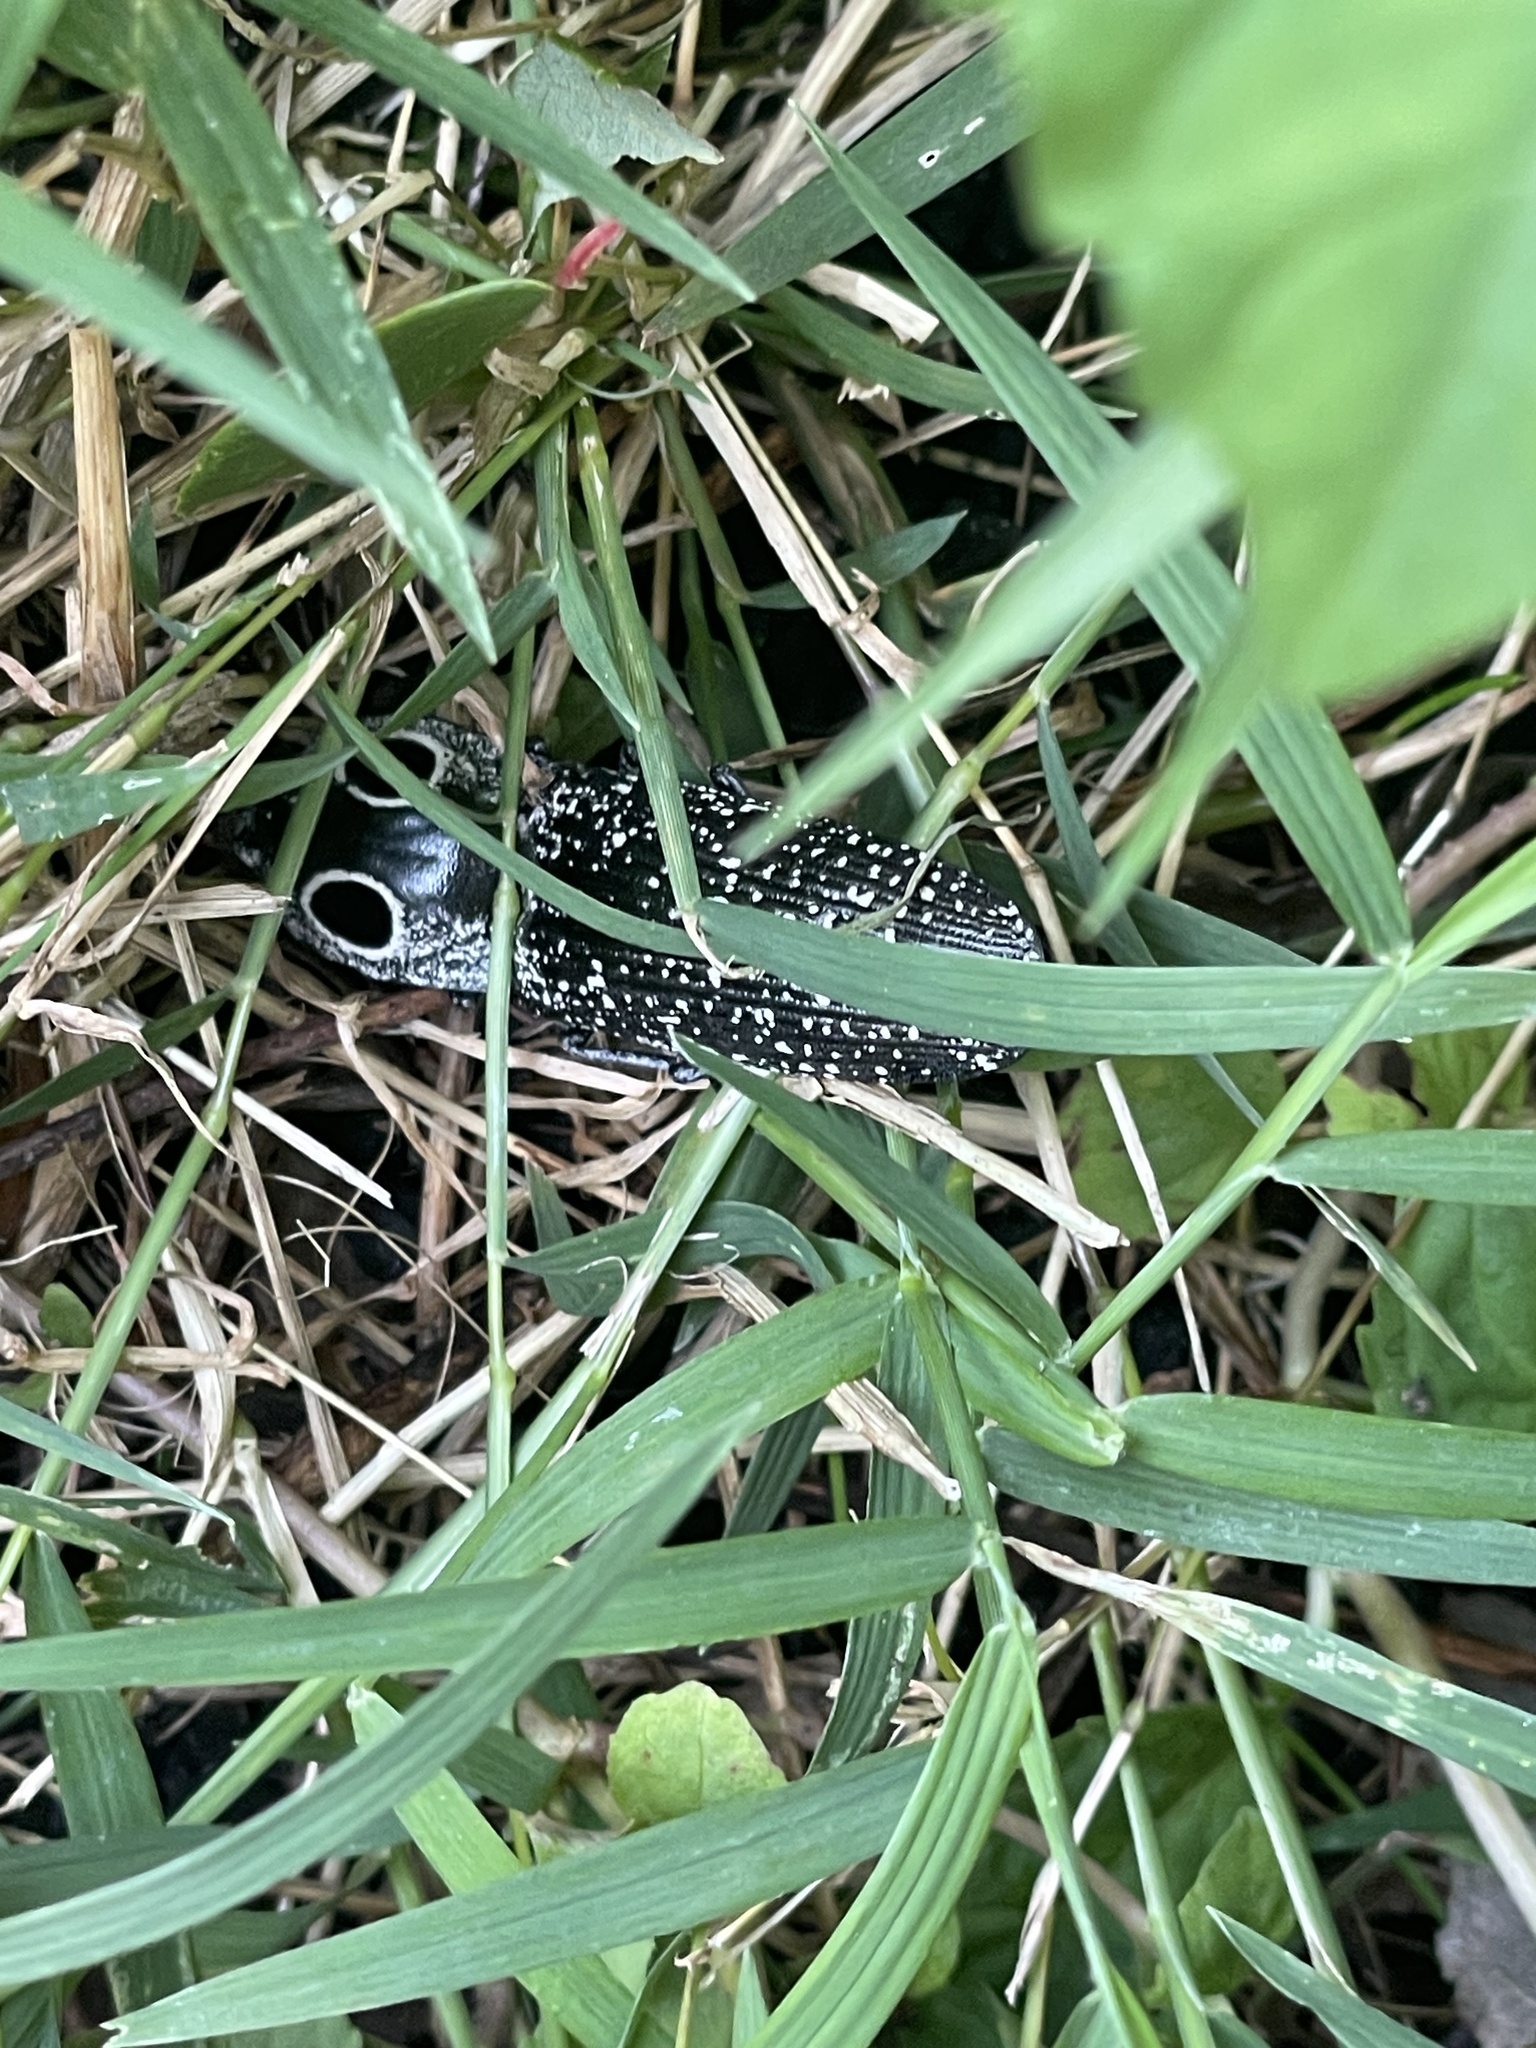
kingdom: Animalia
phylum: Arthropoda
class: Insecta
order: Coleoptera
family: Elateridae
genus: Alaus
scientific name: Alaus oculatus
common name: Eastern eyed click beetle
